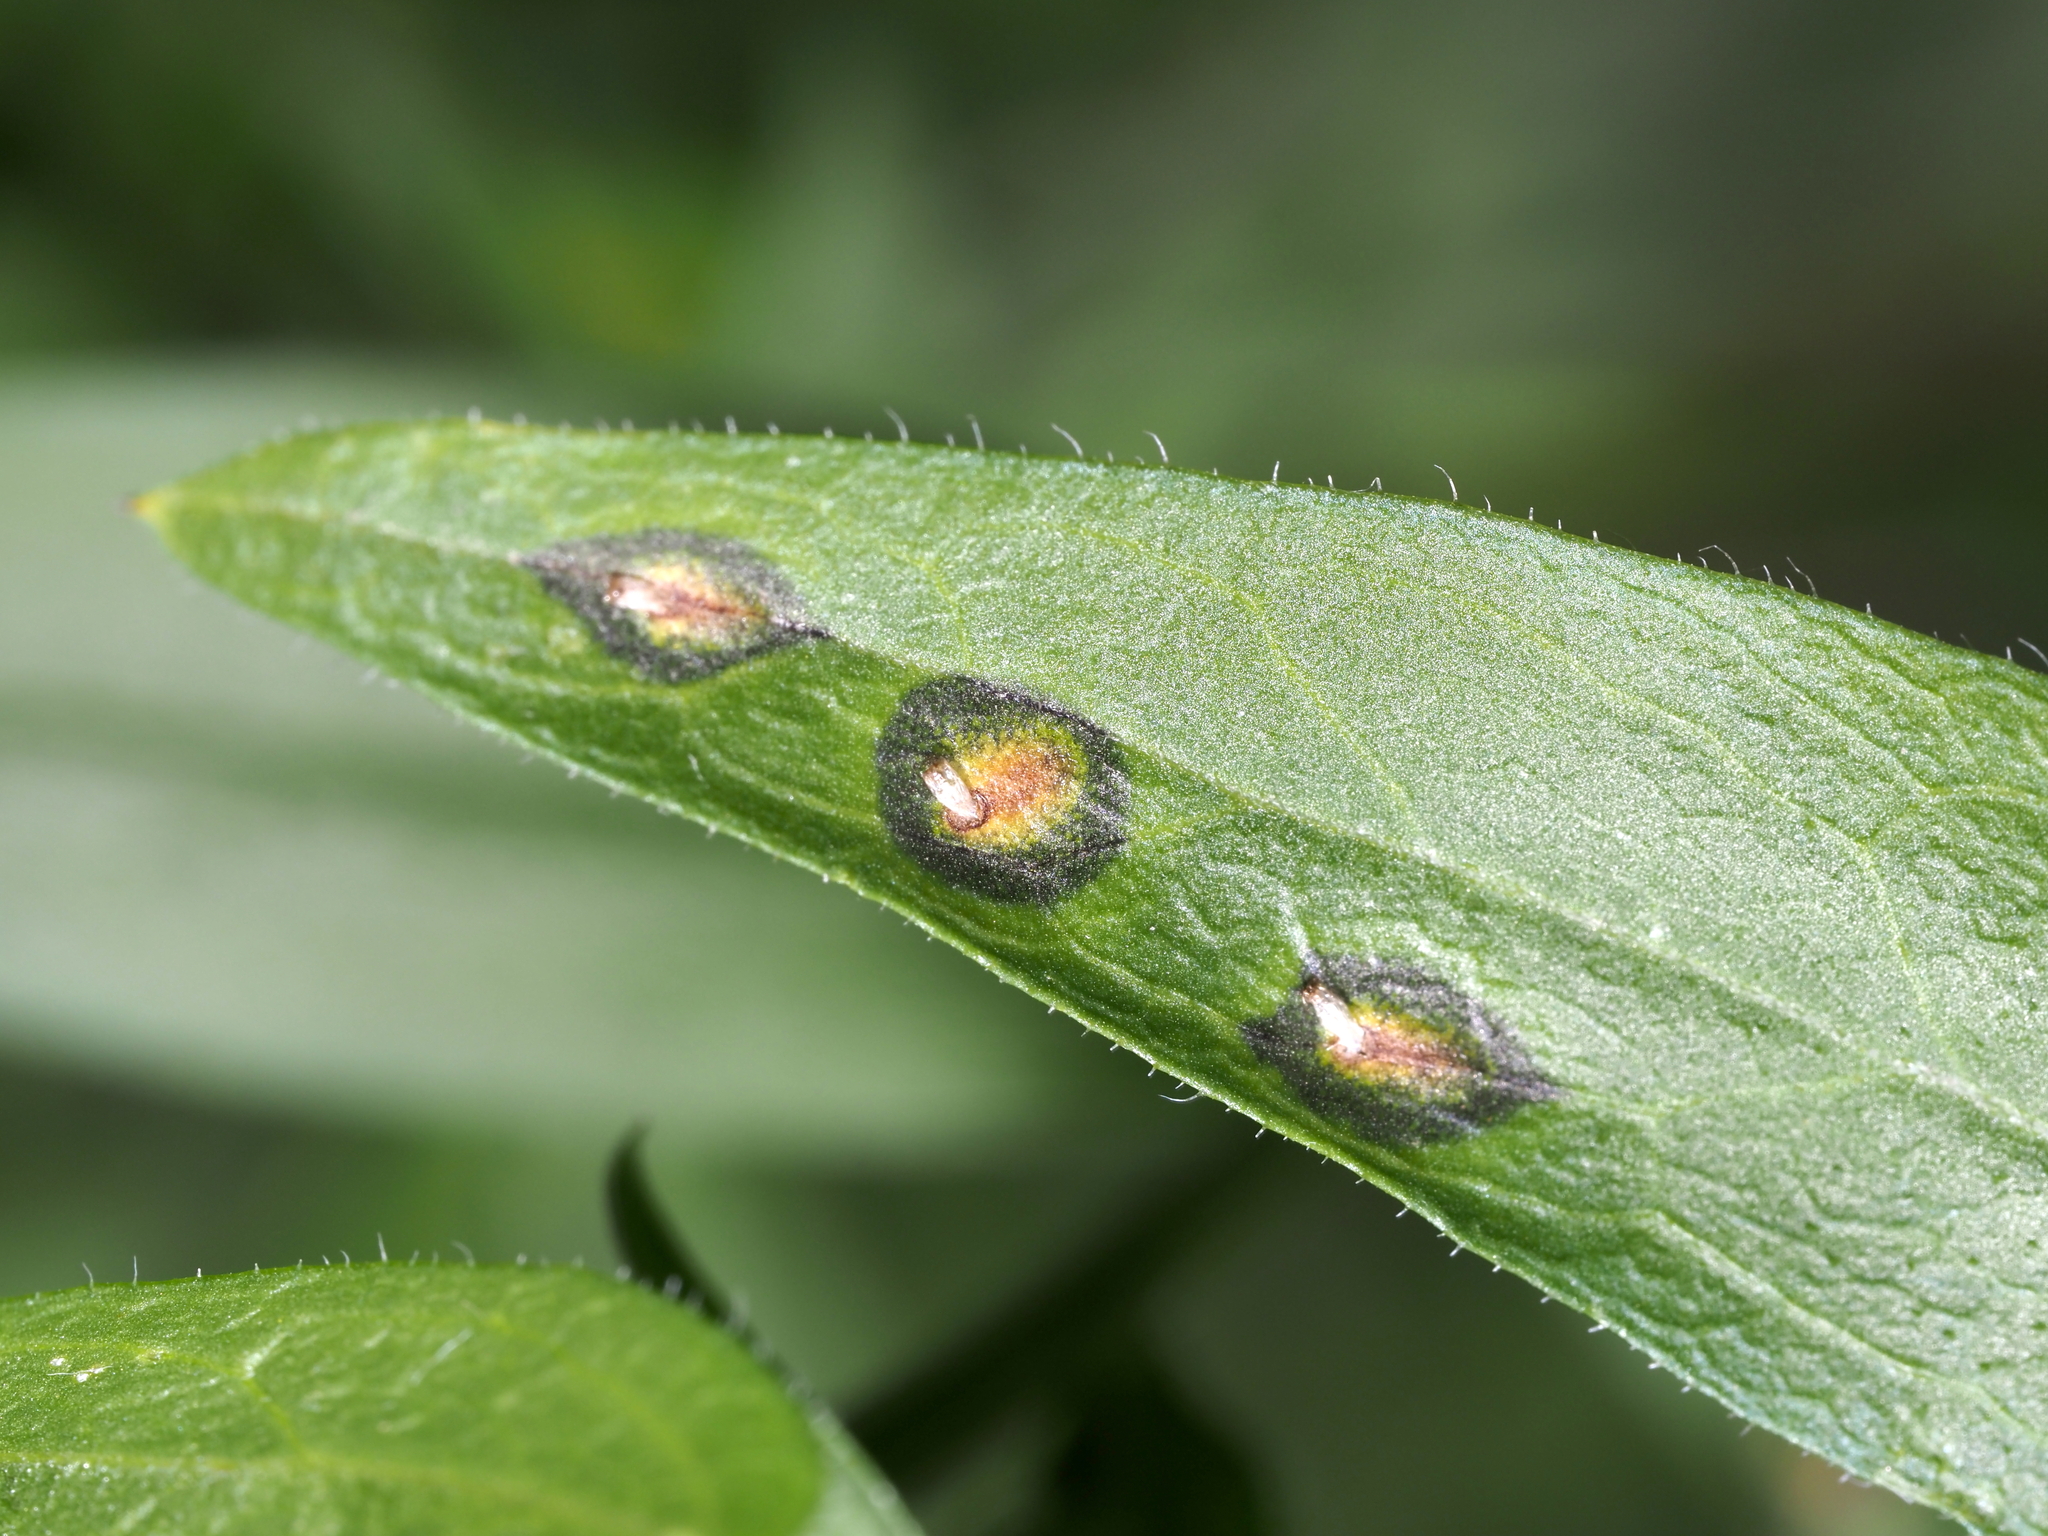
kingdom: Animalia
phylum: Arthropoda
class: Insecta
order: Diptera
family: Cecidomyiidae
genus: Asteromyia
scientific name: Asteromyia modesta
